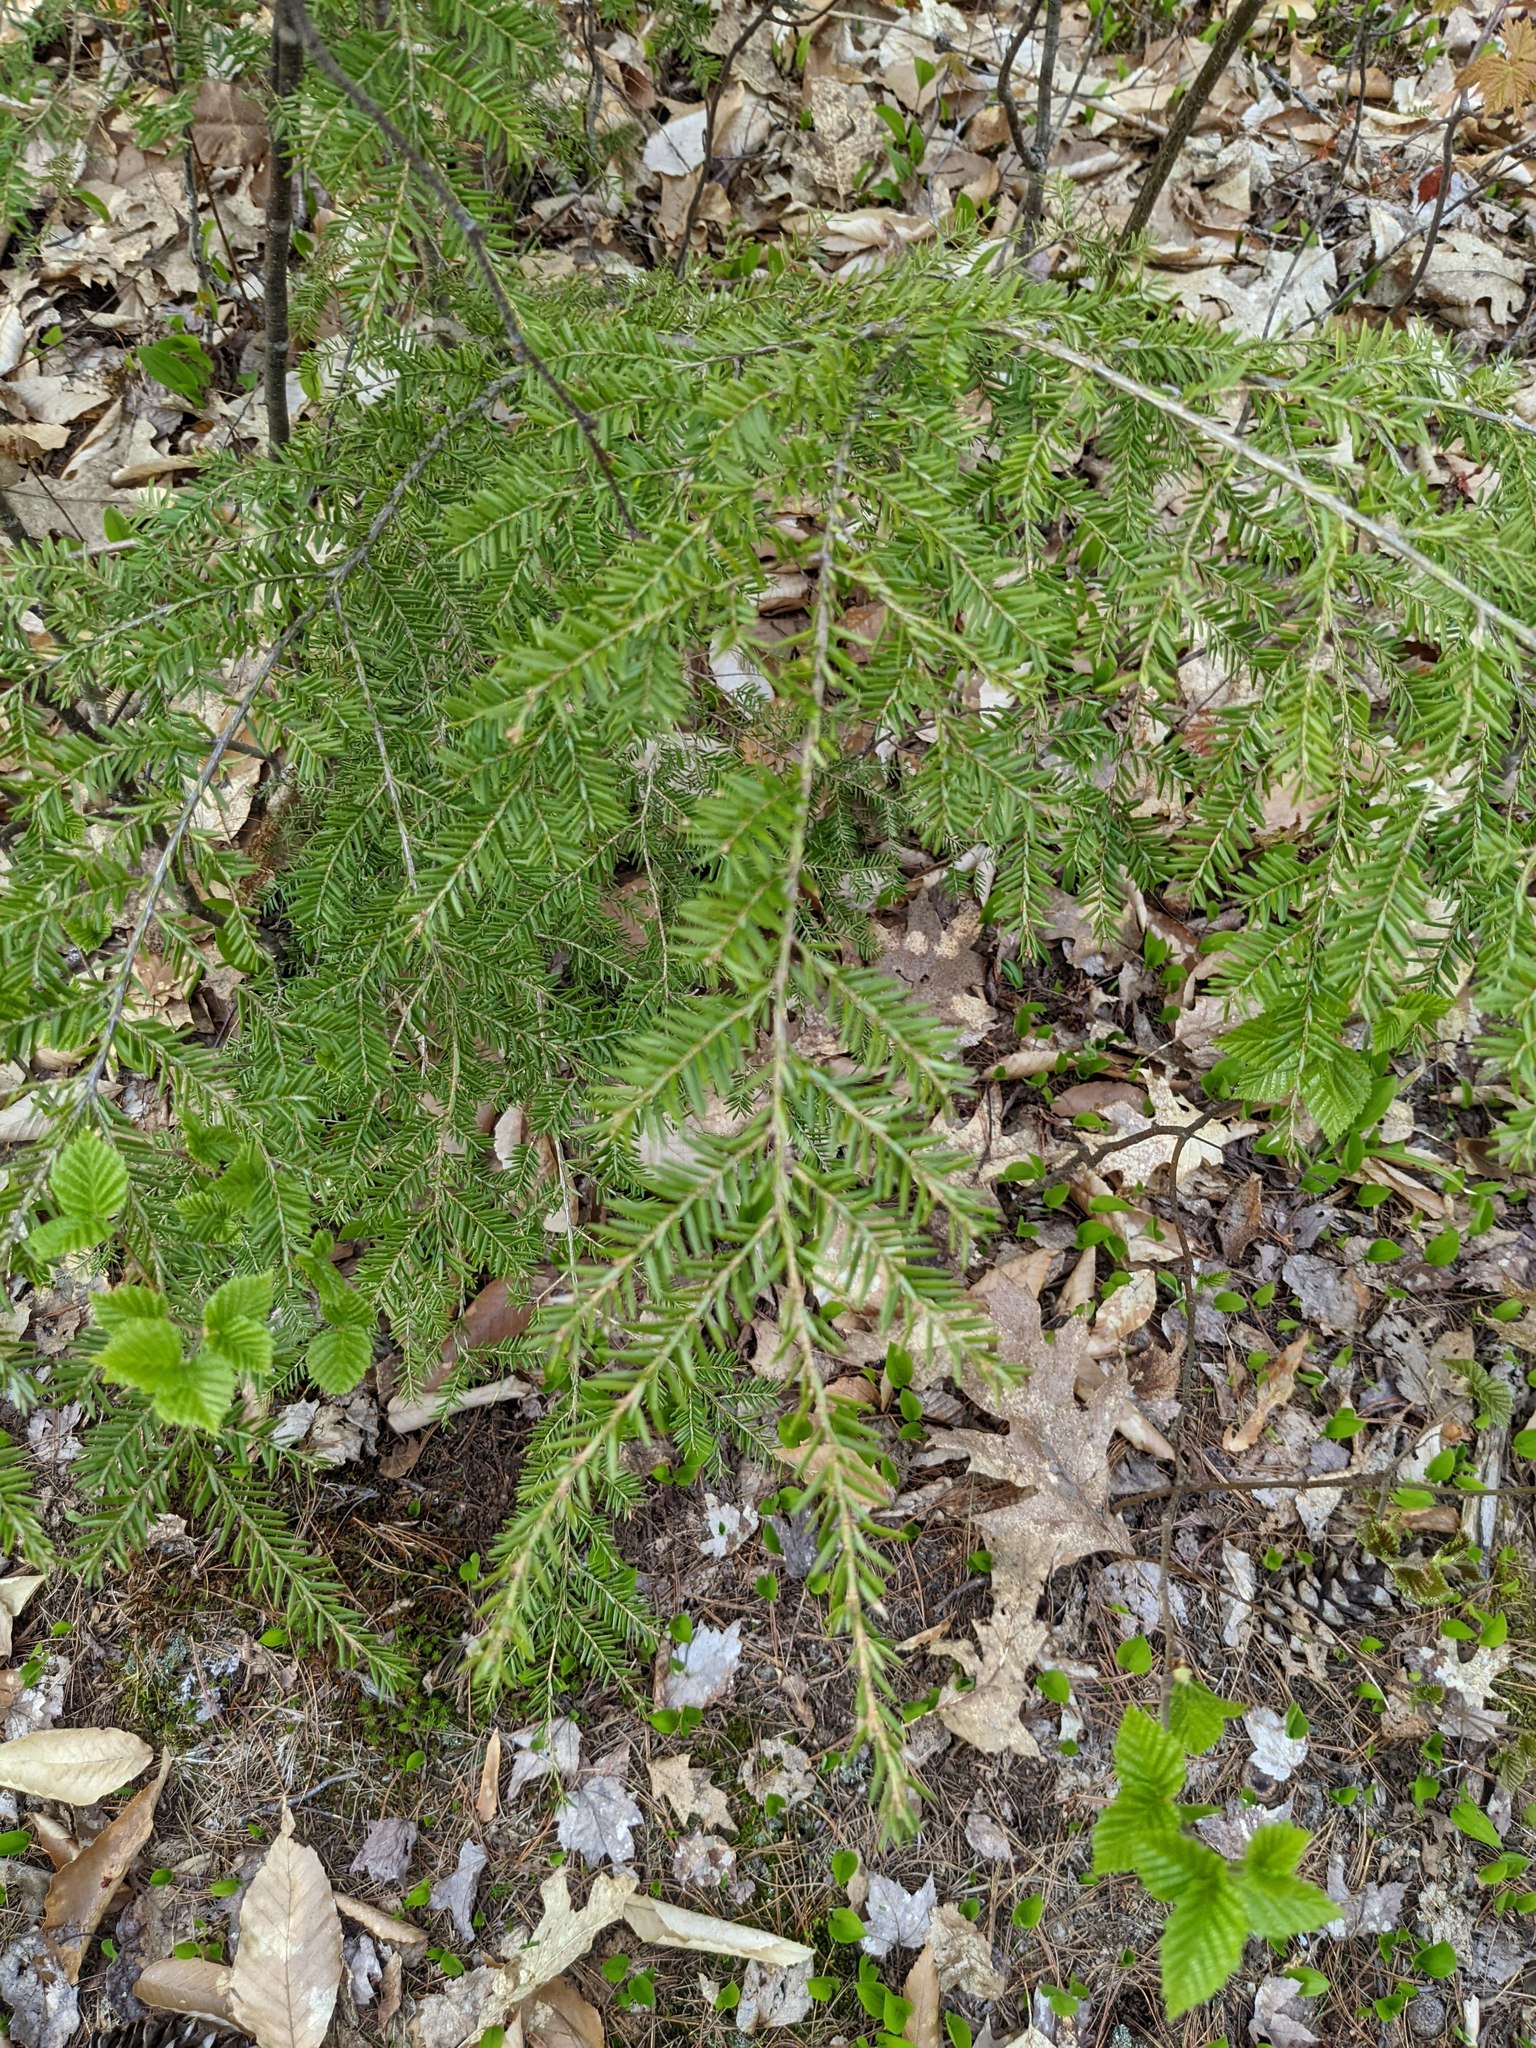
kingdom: Plantae
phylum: Tracheophyta
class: Pinopsida
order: Pinales
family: Pinaceae
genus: Tsuga
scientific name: Tsuga canadensis
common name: Eastern hemlock
